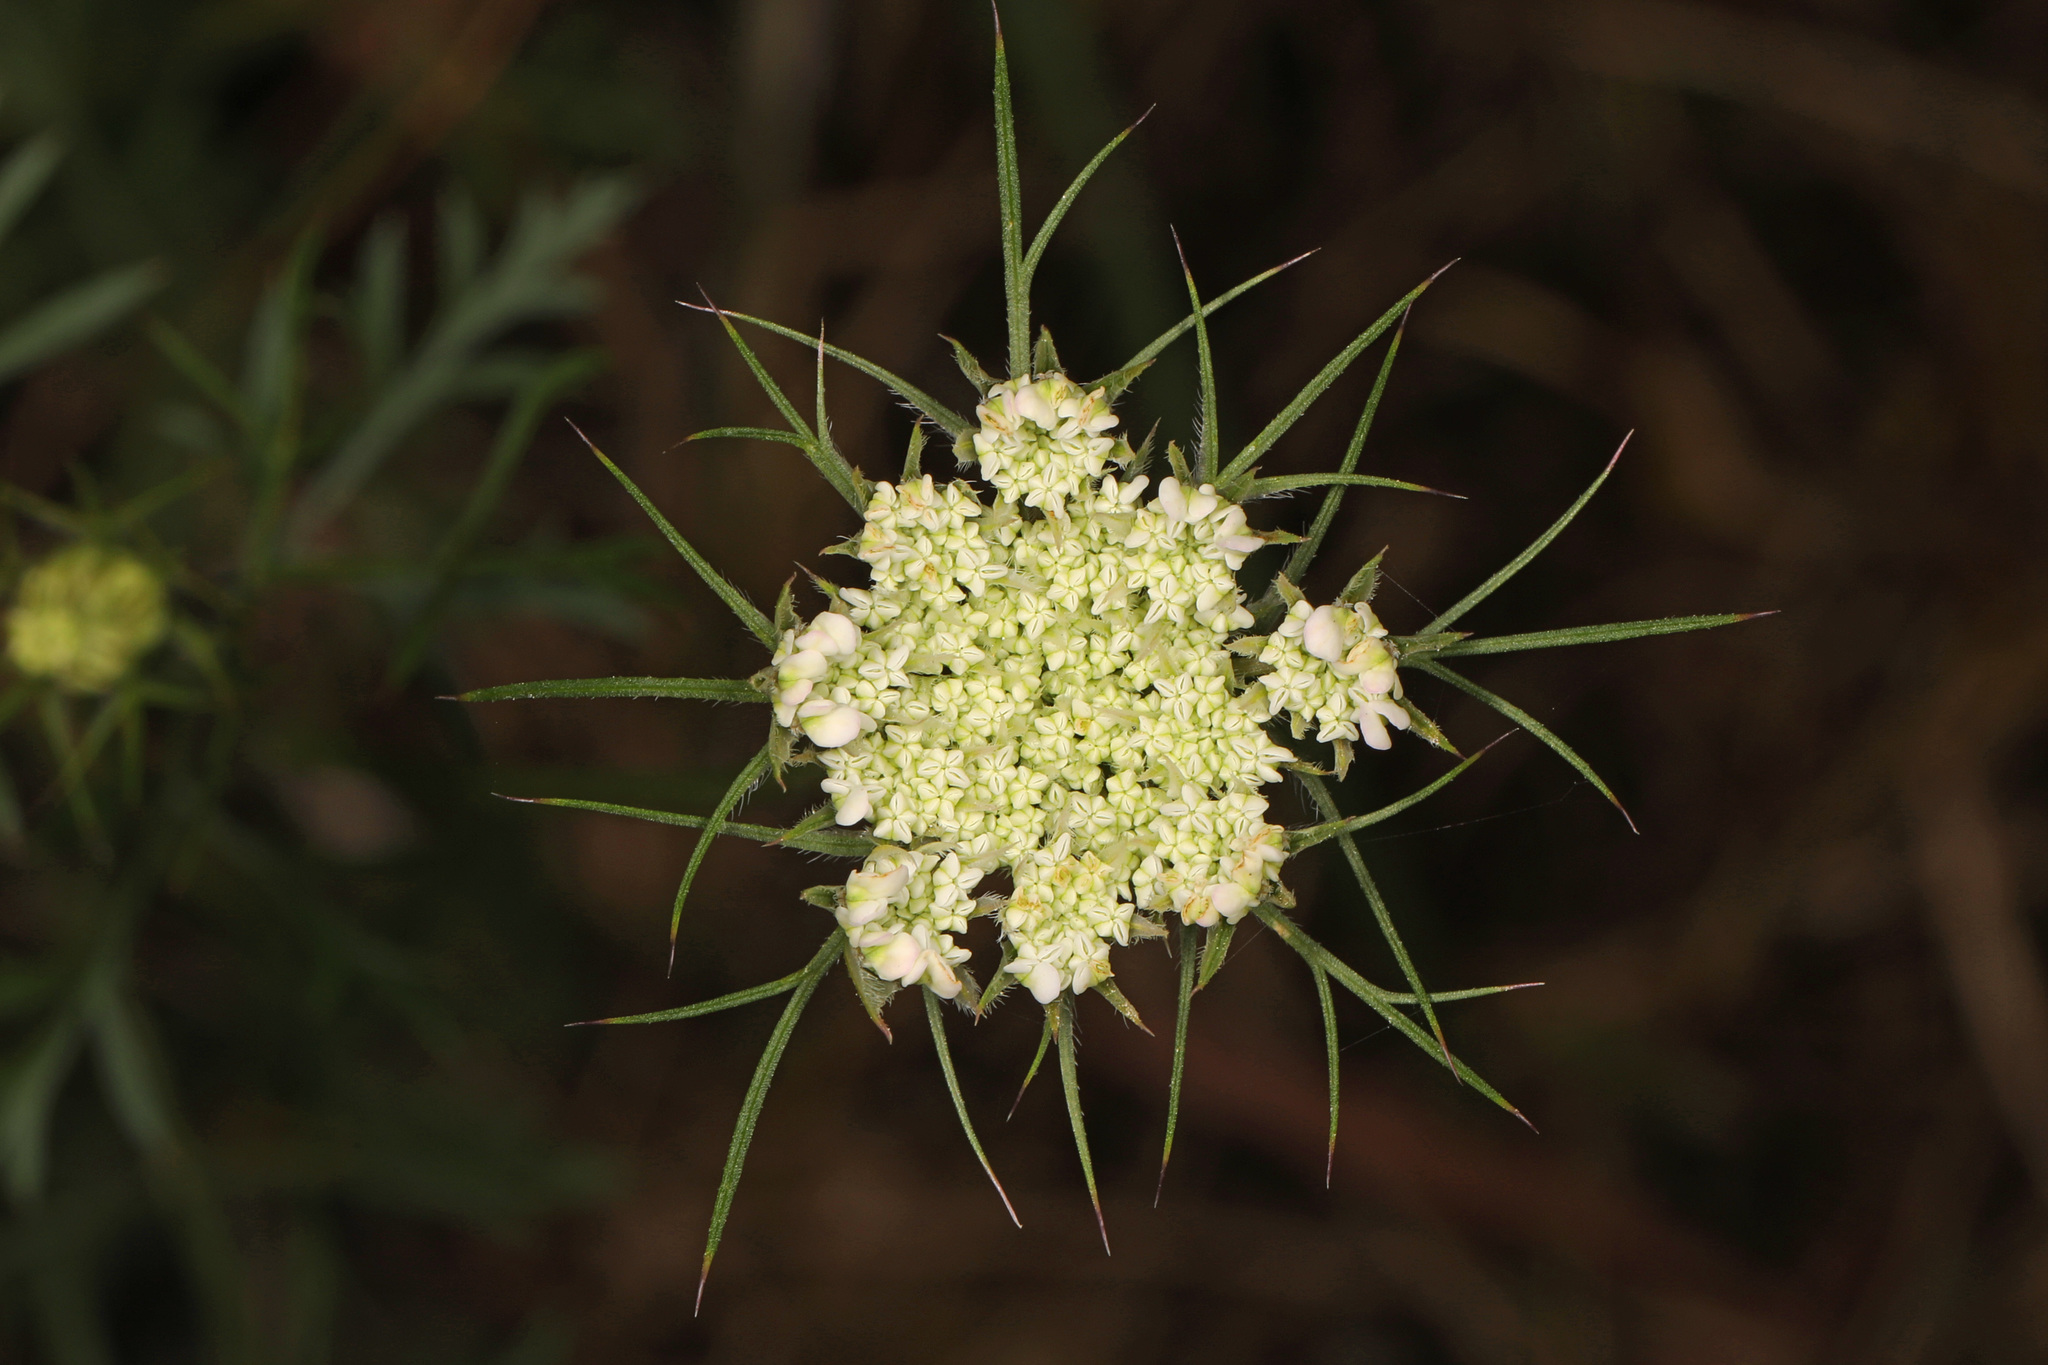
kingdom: Plantae
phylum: Tracheophyta
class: Magnoliopsida
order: Apiales
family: Apiaceae
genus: Daucus
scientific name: Daucus carota
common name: Wild carrot
